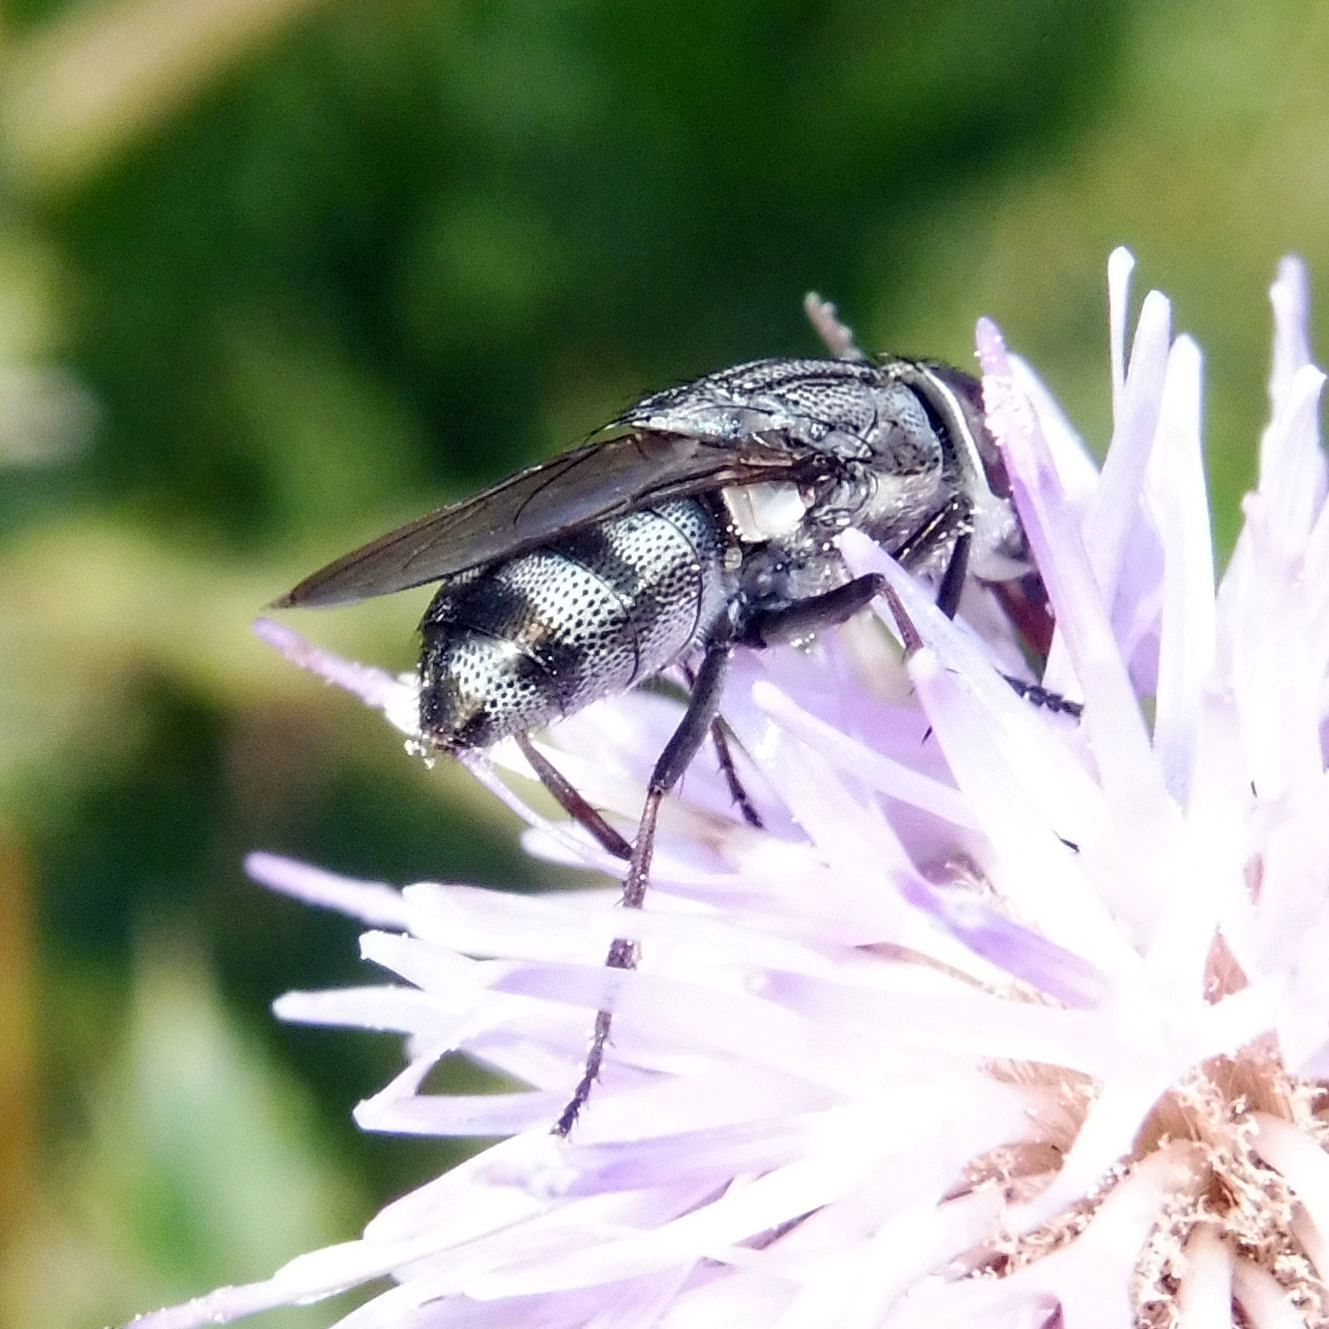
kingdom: Animalia
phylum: Arthropoda
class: Insecta
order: Diptera
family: Calliphoridae
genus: Stomorhina
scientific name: Stomorhina lunata
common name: Locust blowfly
